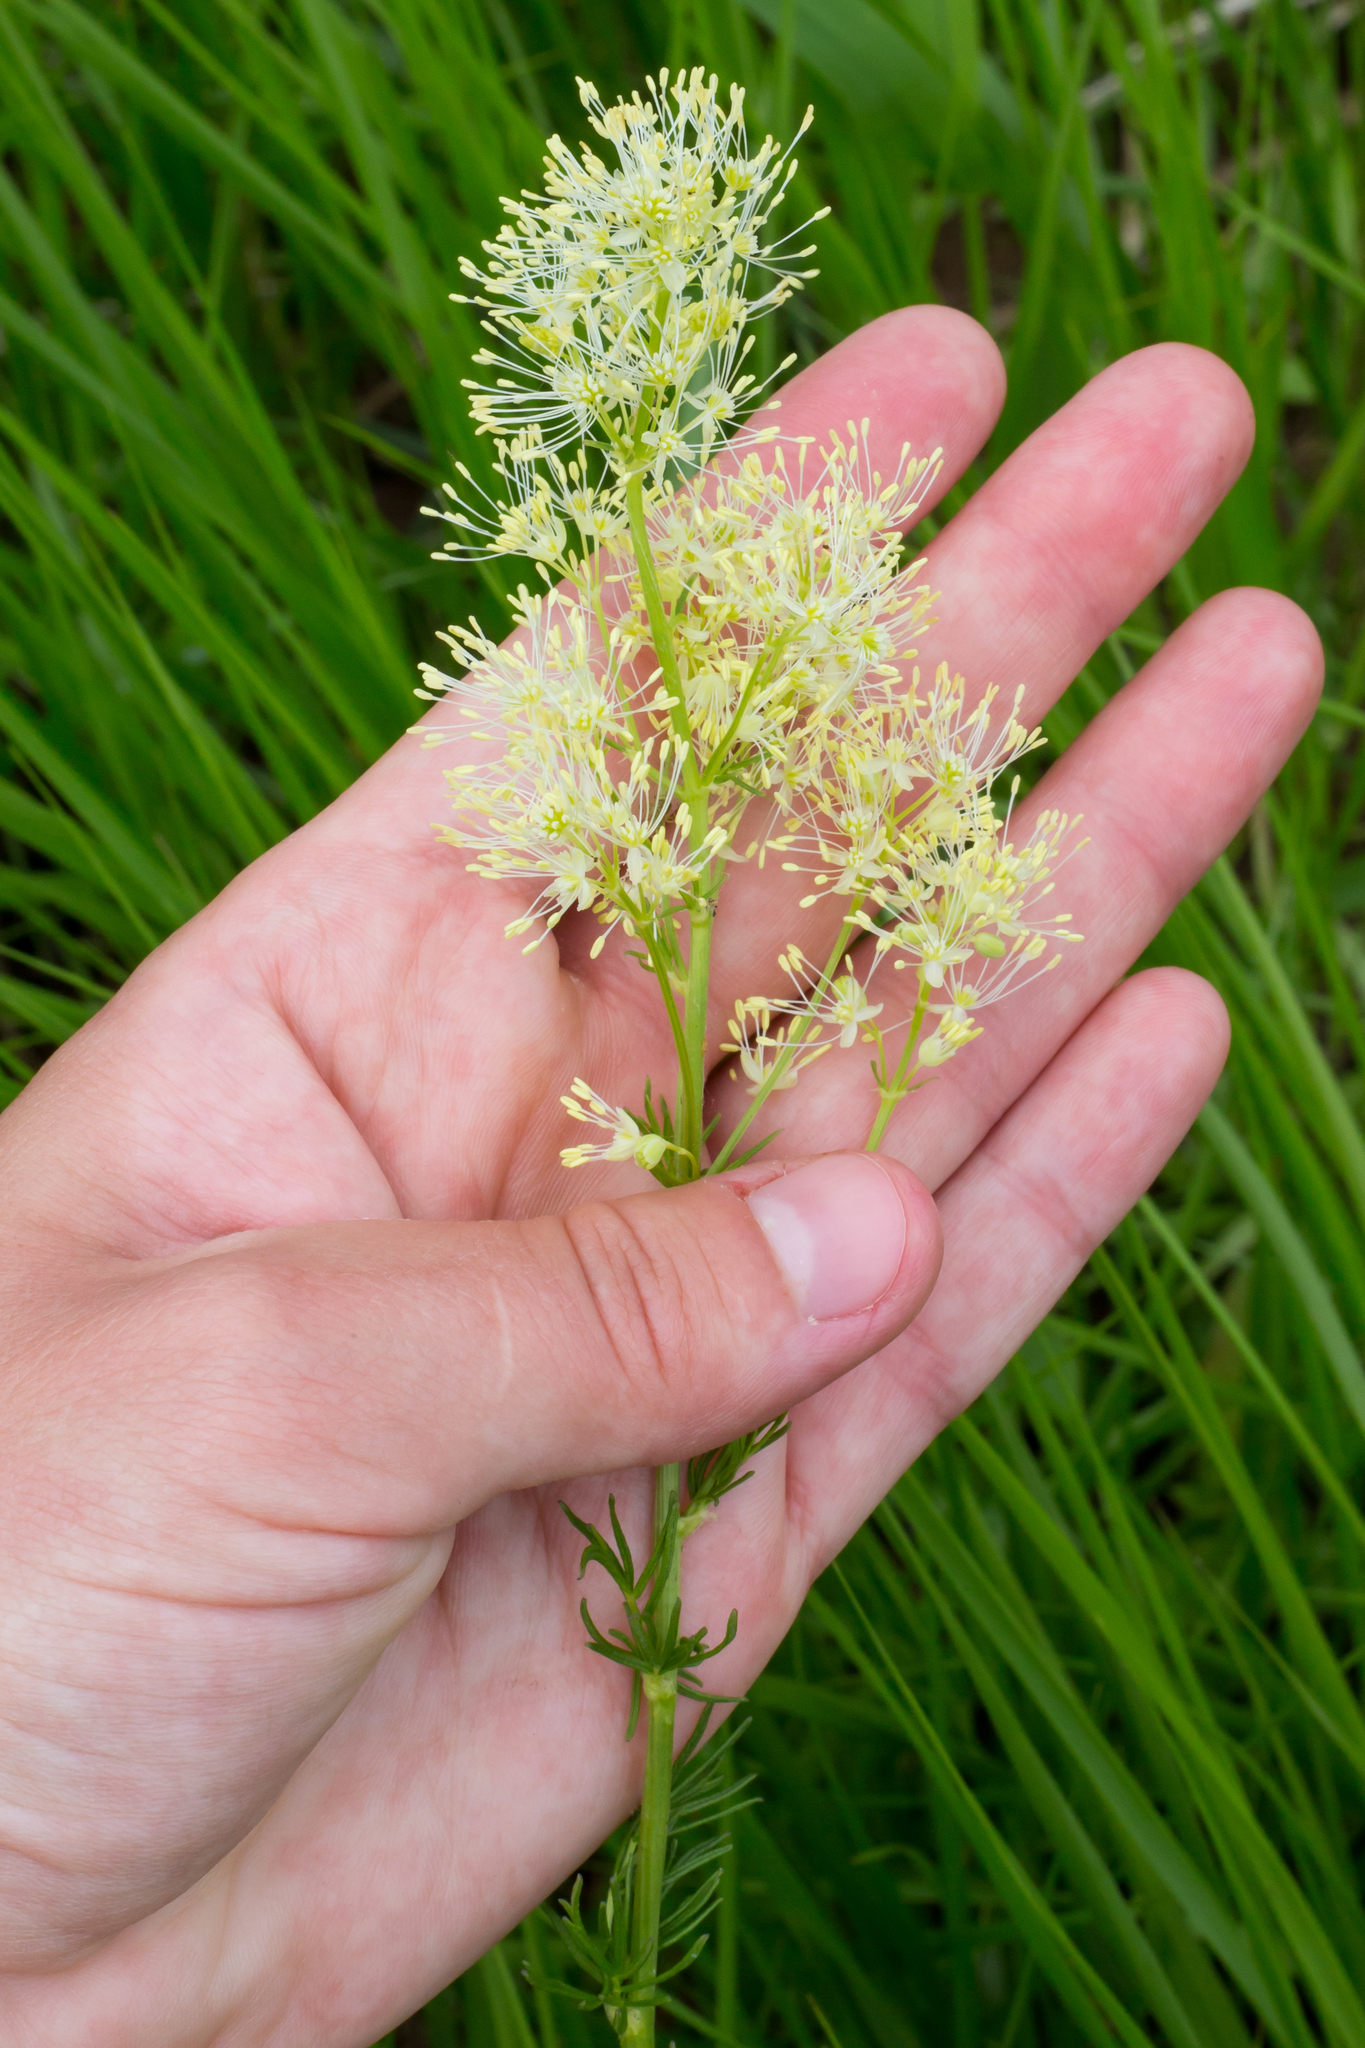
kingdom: Plantae
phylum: Tracheophyta
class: Magnoliopsida
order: Ranunculales
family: Ranunculaceae
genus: Thalictrum
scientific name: Thalictrum lucidum
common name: Shining meadow-rue
